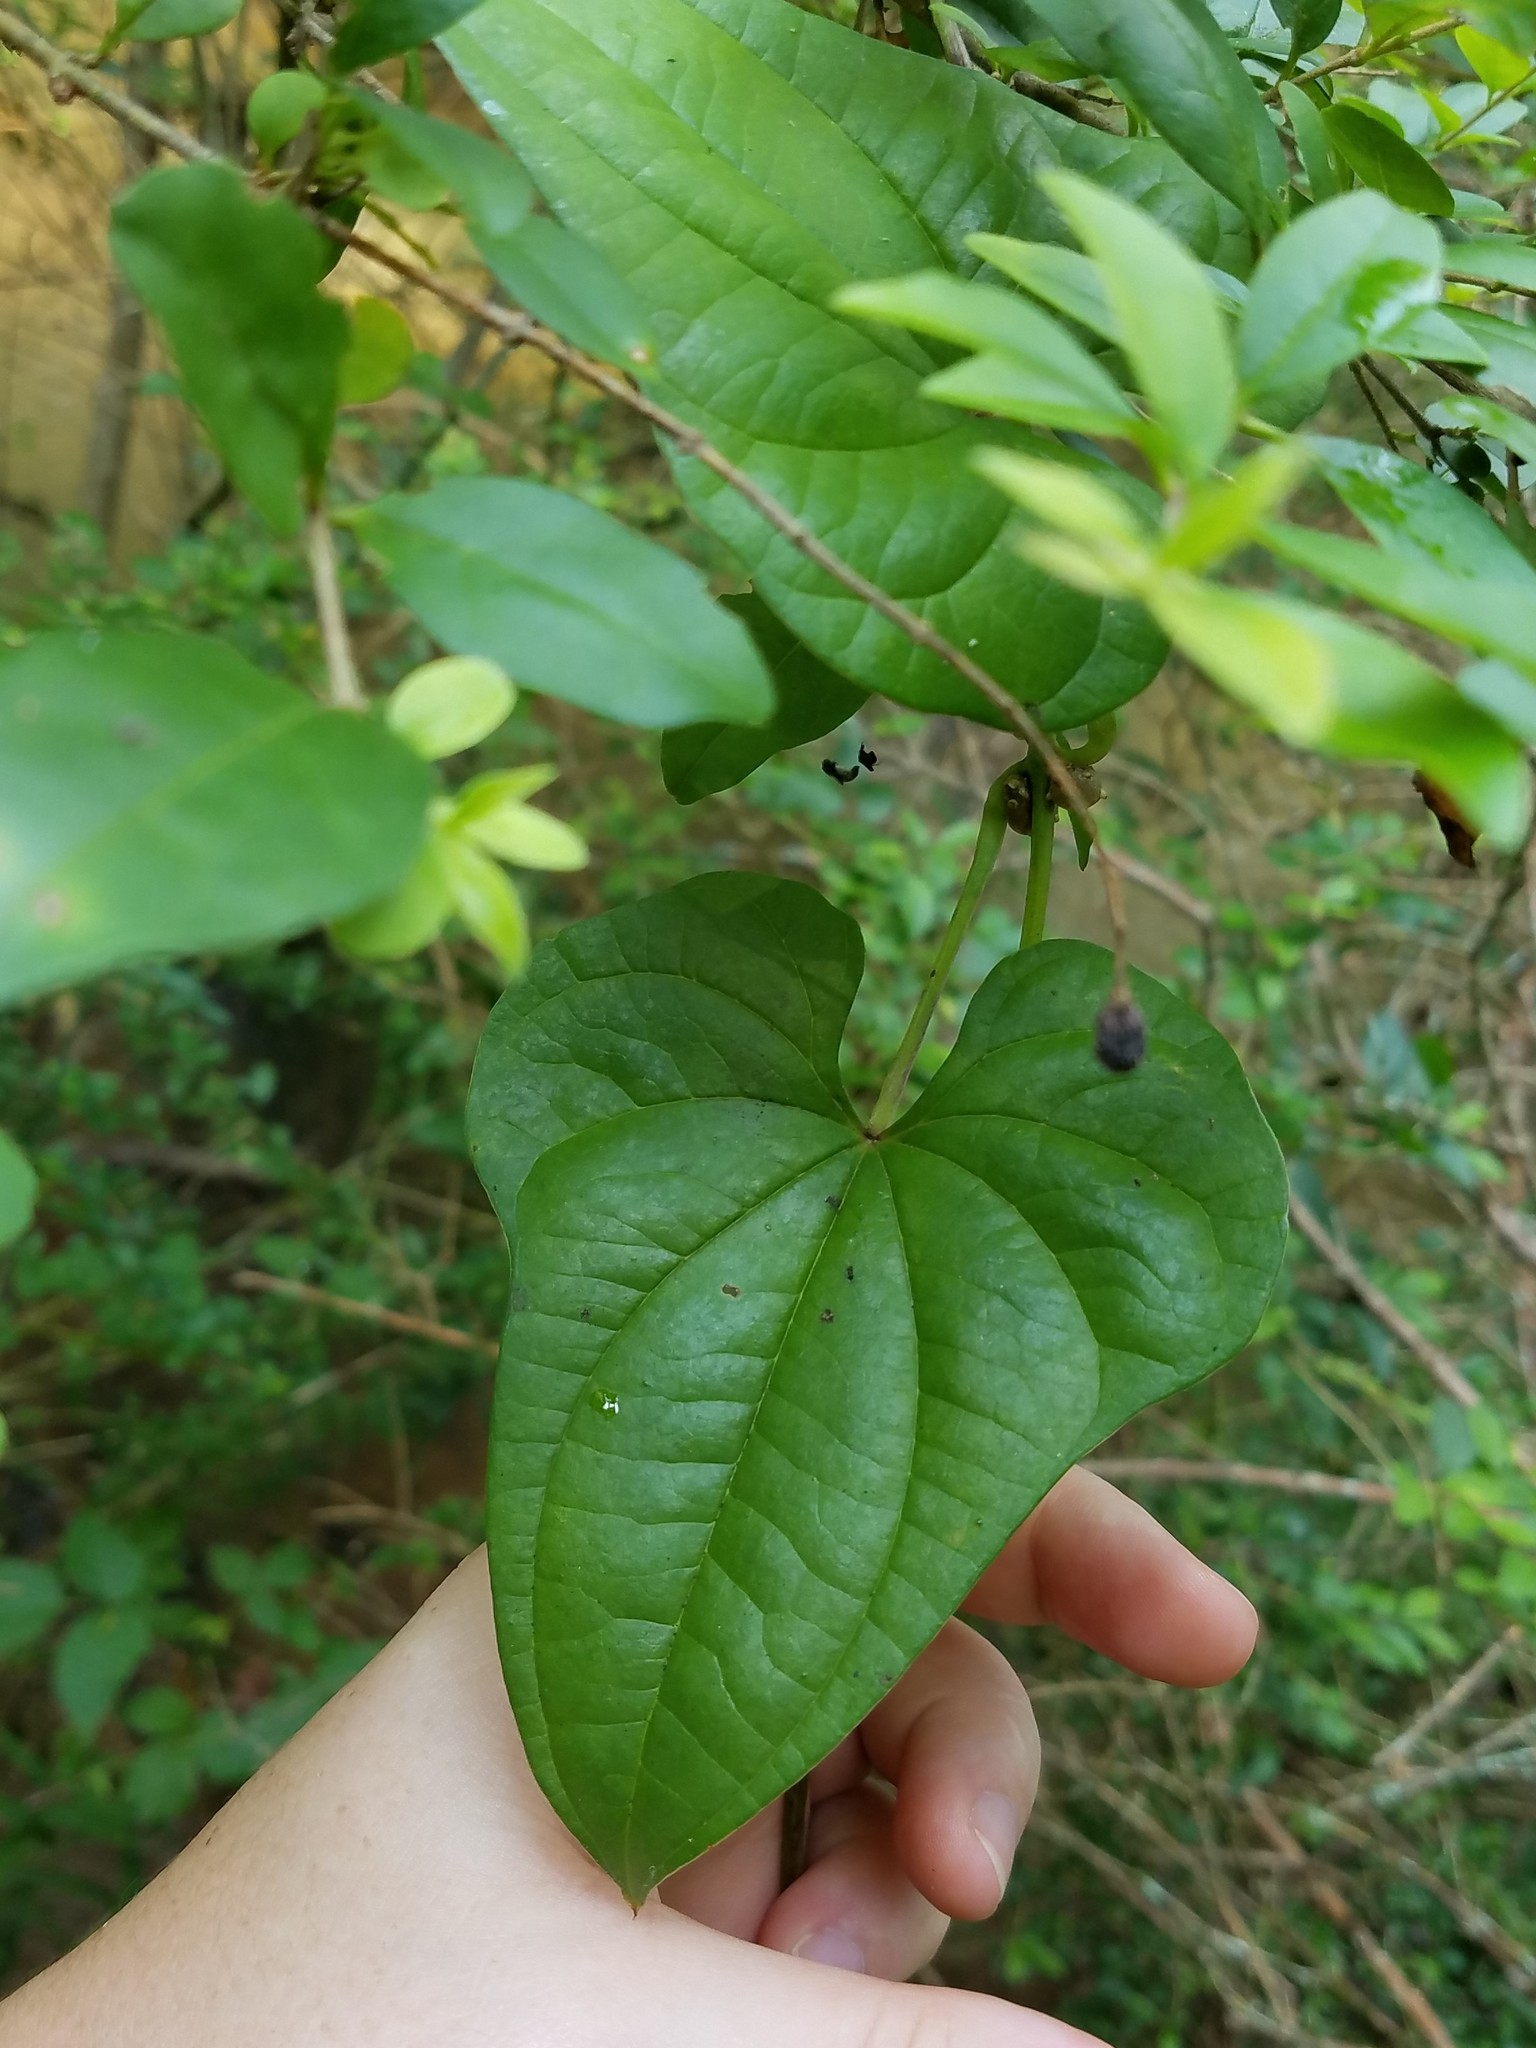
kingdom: Plantae
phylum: Tracheophyta
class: Liliopsida
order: Dioscoreales
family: Dioscoreaceae
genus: Dioscorea
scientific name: Dioscorea polystachya
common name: Chinese yam
